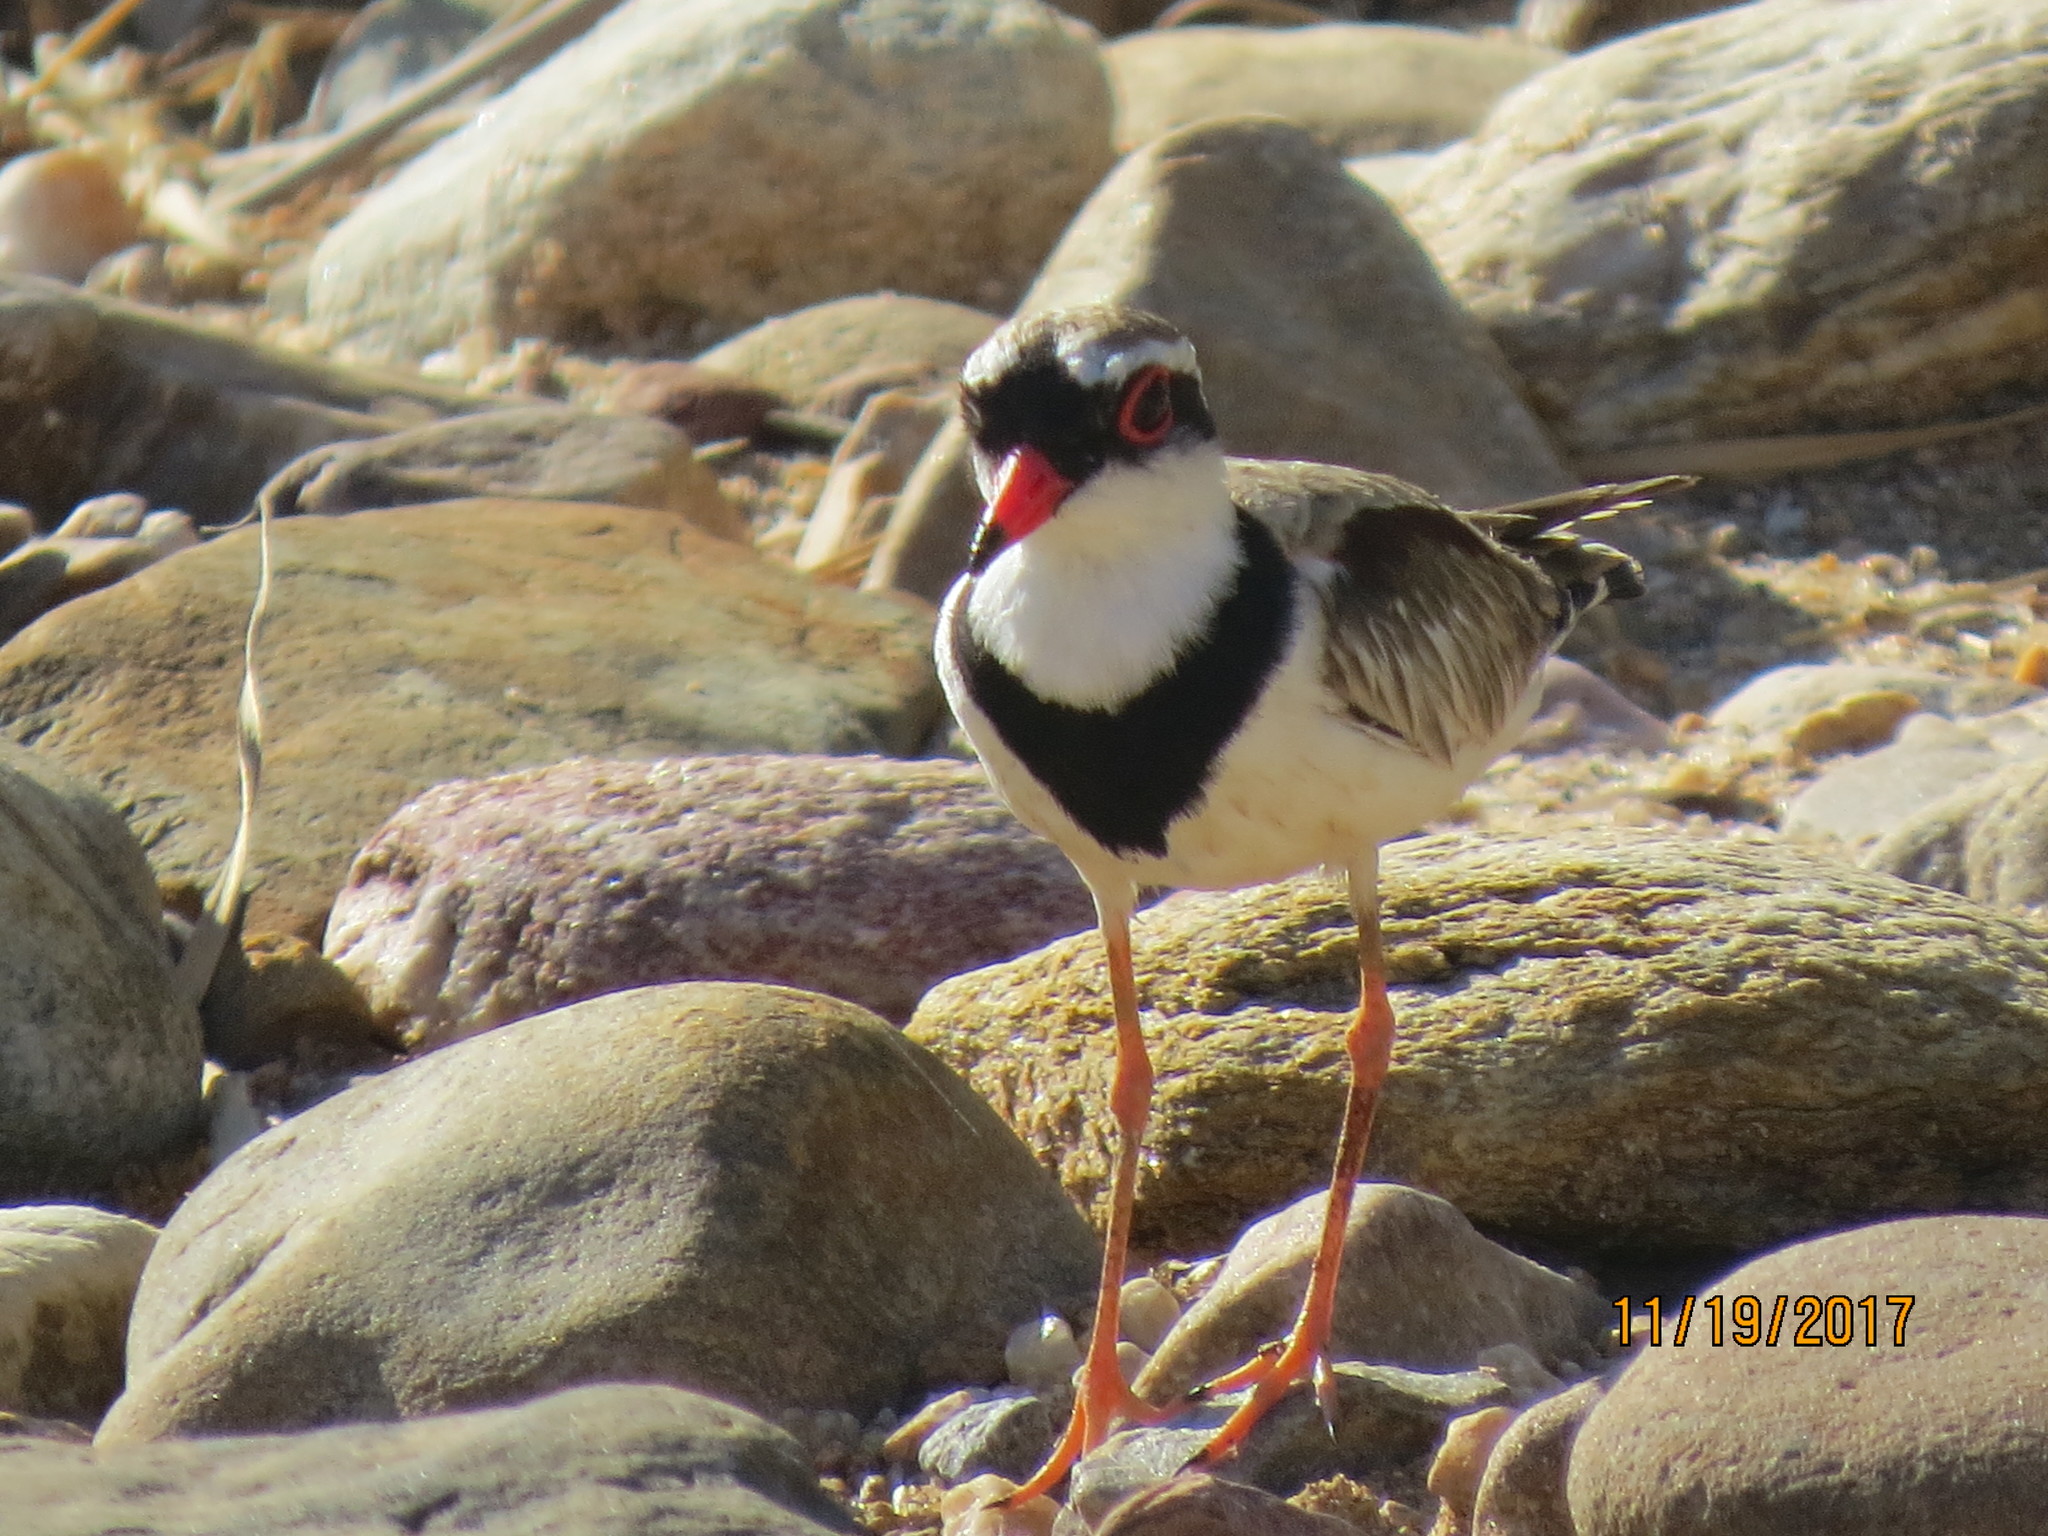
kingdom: Animalia
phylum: Chordata
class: Aves
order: Charadriiformes
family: Charadriidae
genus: Elseyornis
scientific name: Elseyornis melanops
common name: Black-fronted dotterel
